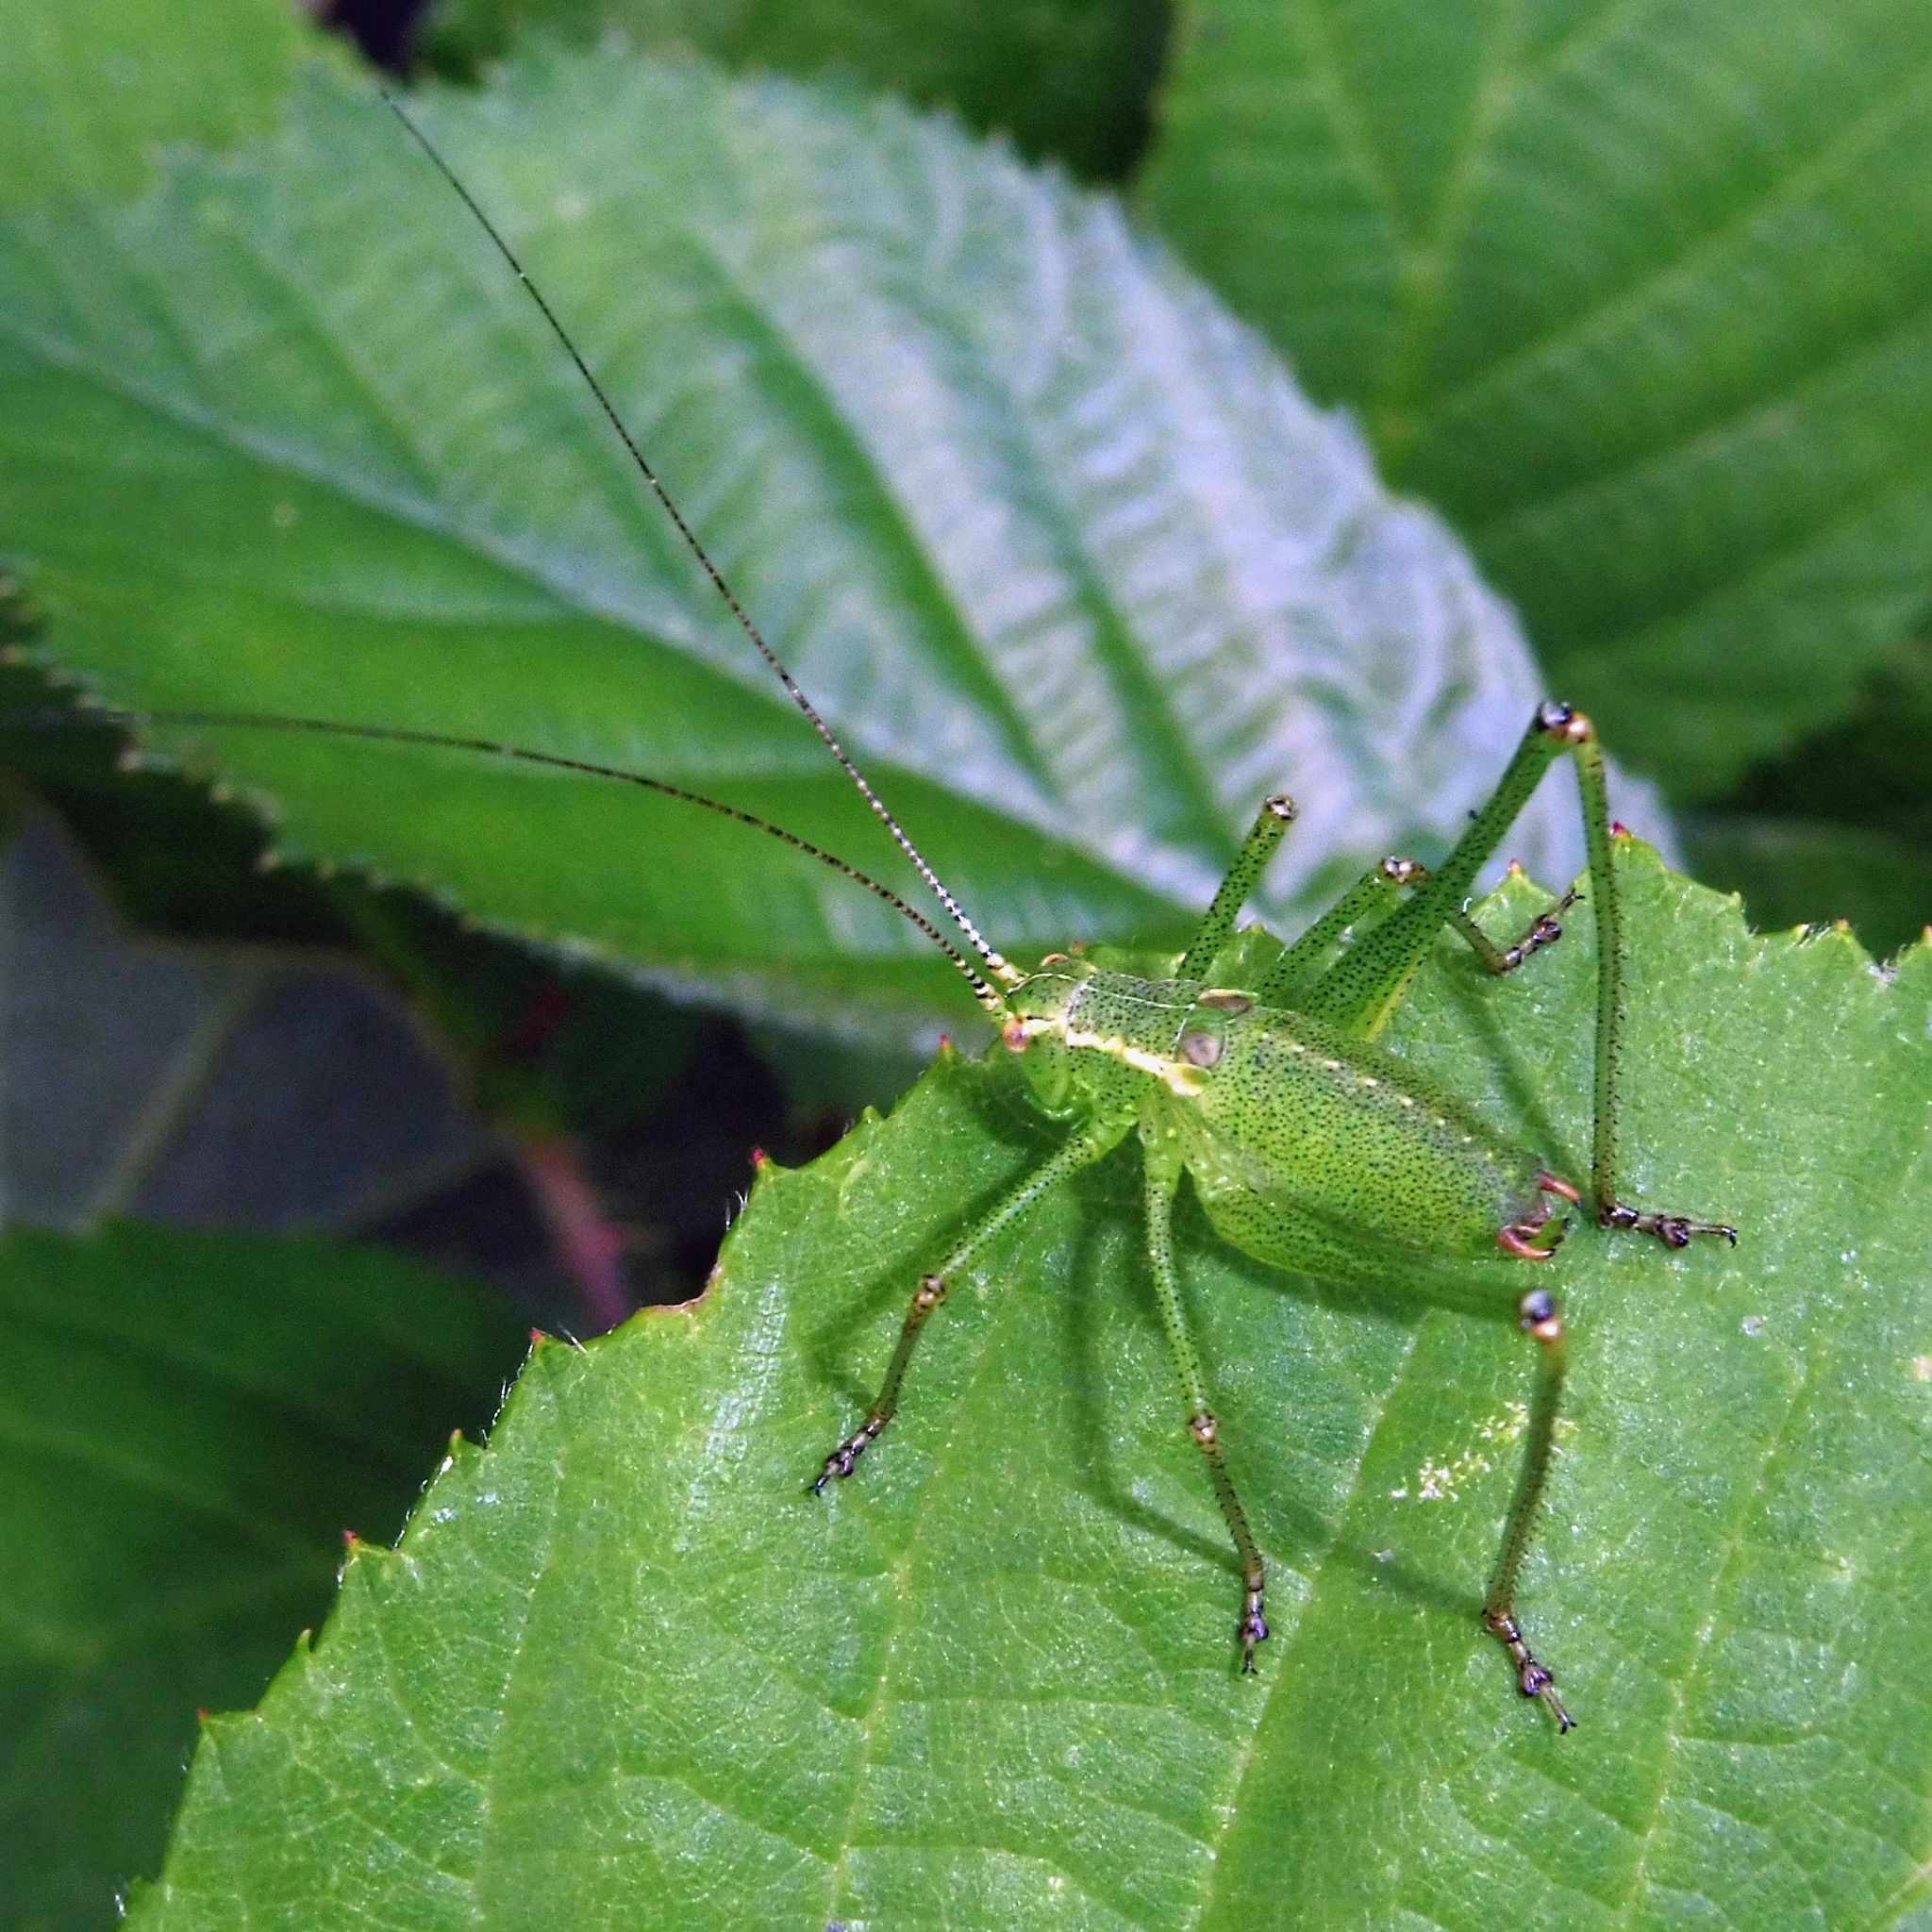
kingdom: Animalia
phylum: Arthropoda
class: Insecta
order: Orthoptera
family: Tettigoniidae
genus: Leptophyes
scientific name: Leptophyes punctatissima
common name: Speckled bush-cricket
